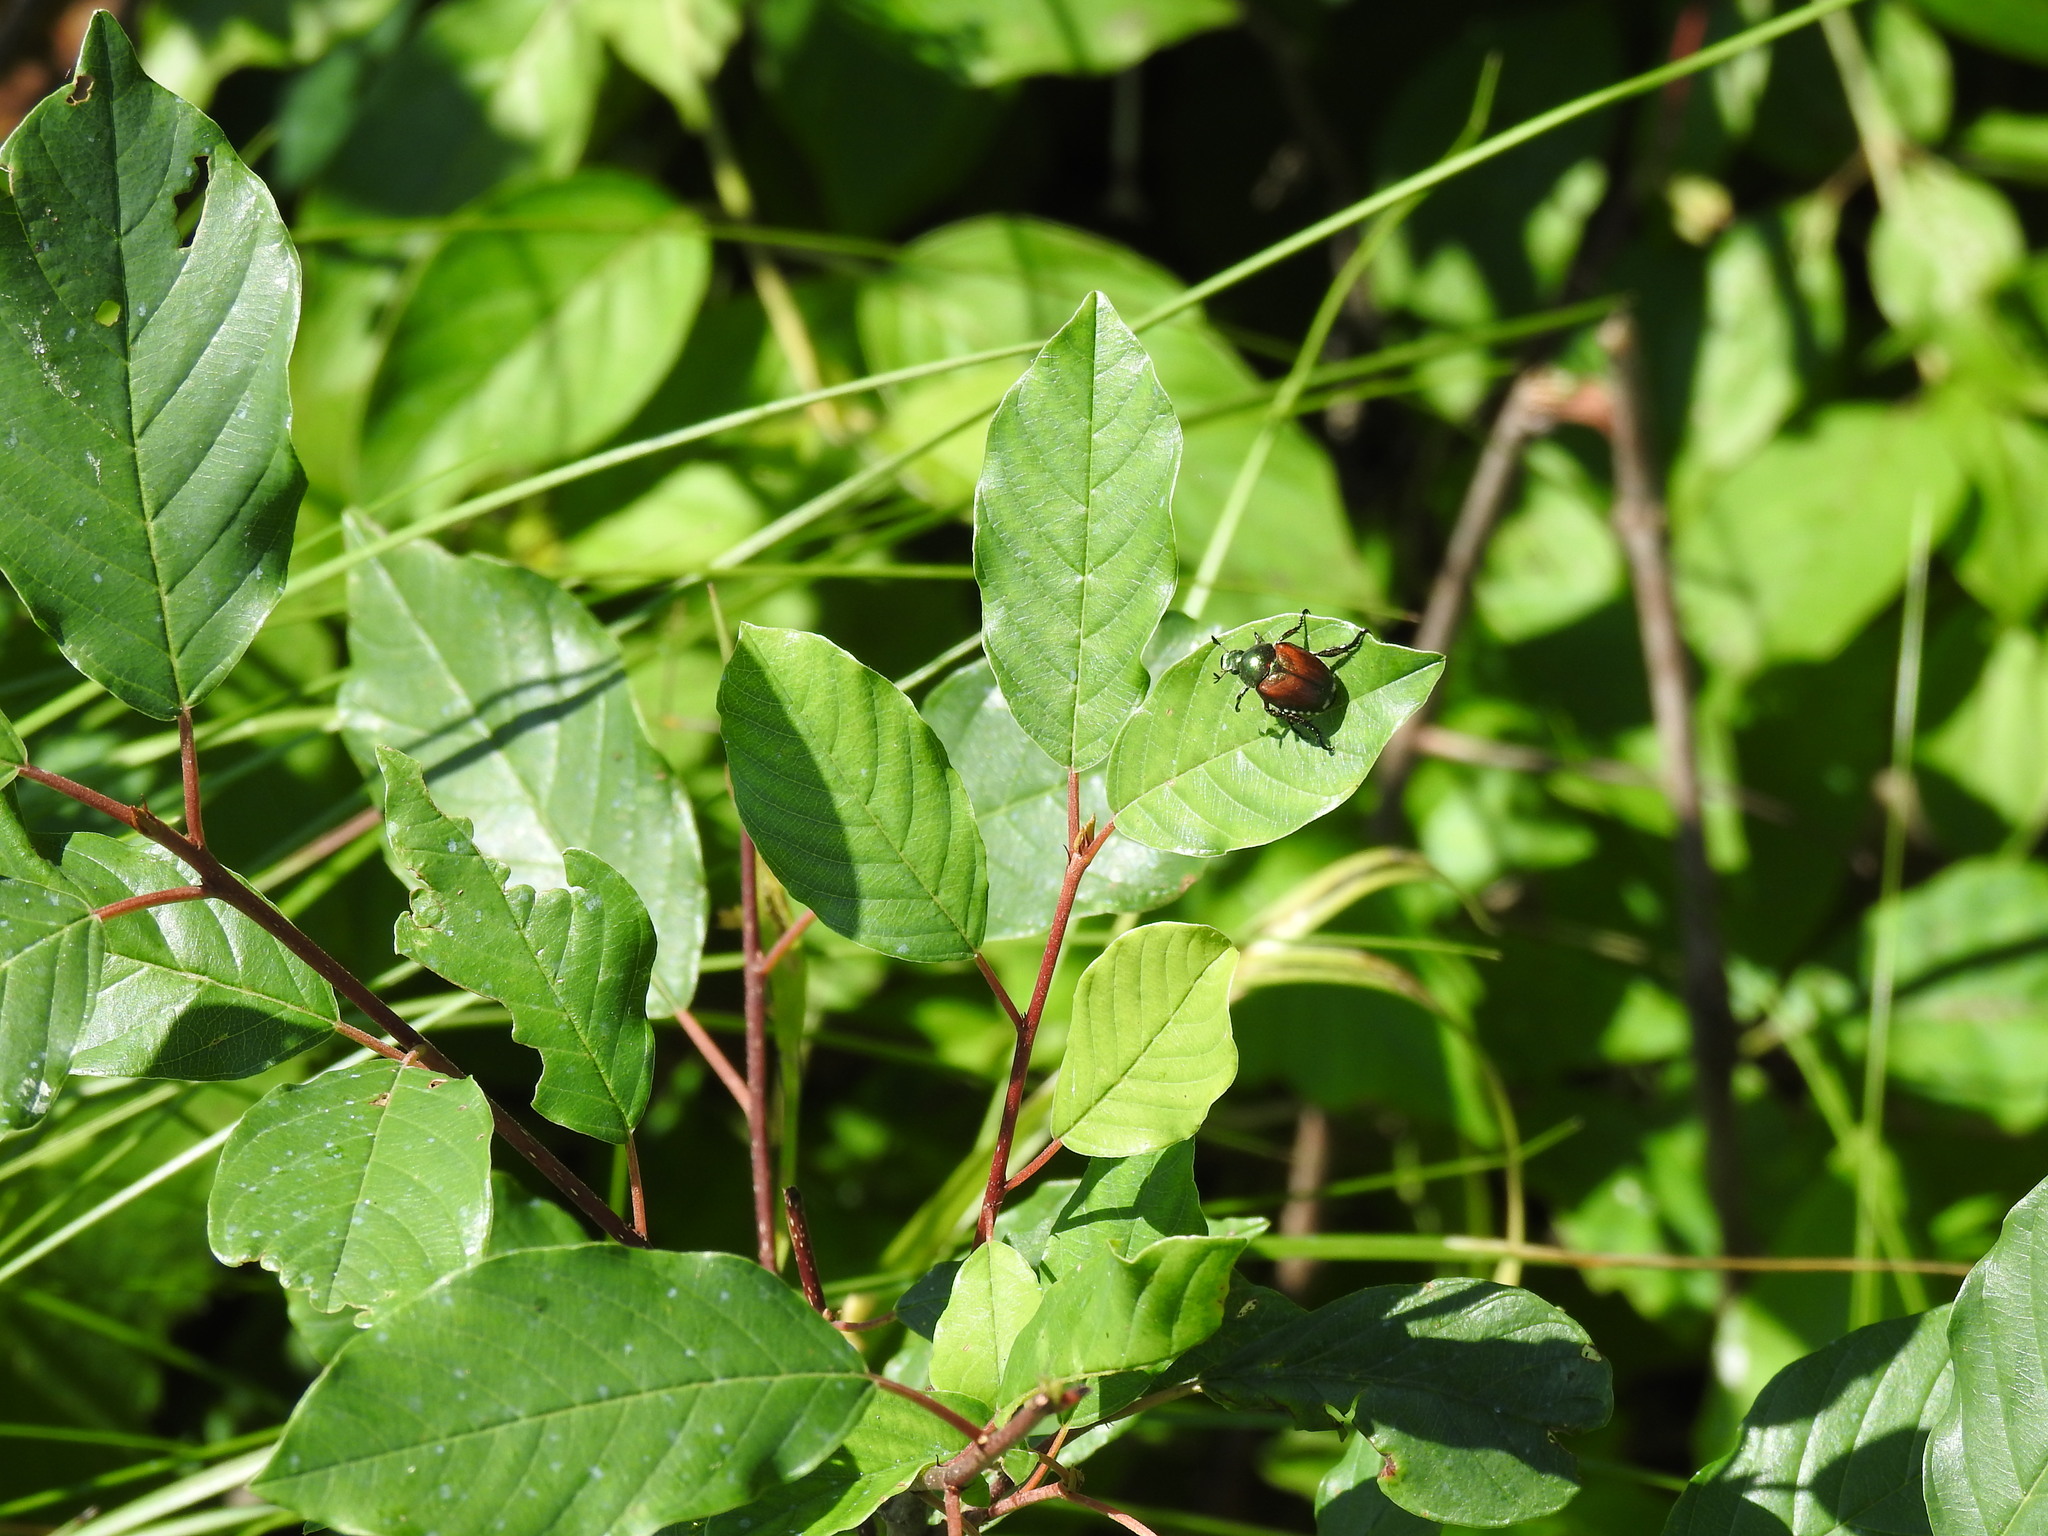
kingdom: Animalia
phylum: Arthropoda
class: Insecta
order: Coleoptera
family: Scarabaeidae
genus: Popillia
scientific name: Popillia japonica
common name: Japanese beetle
